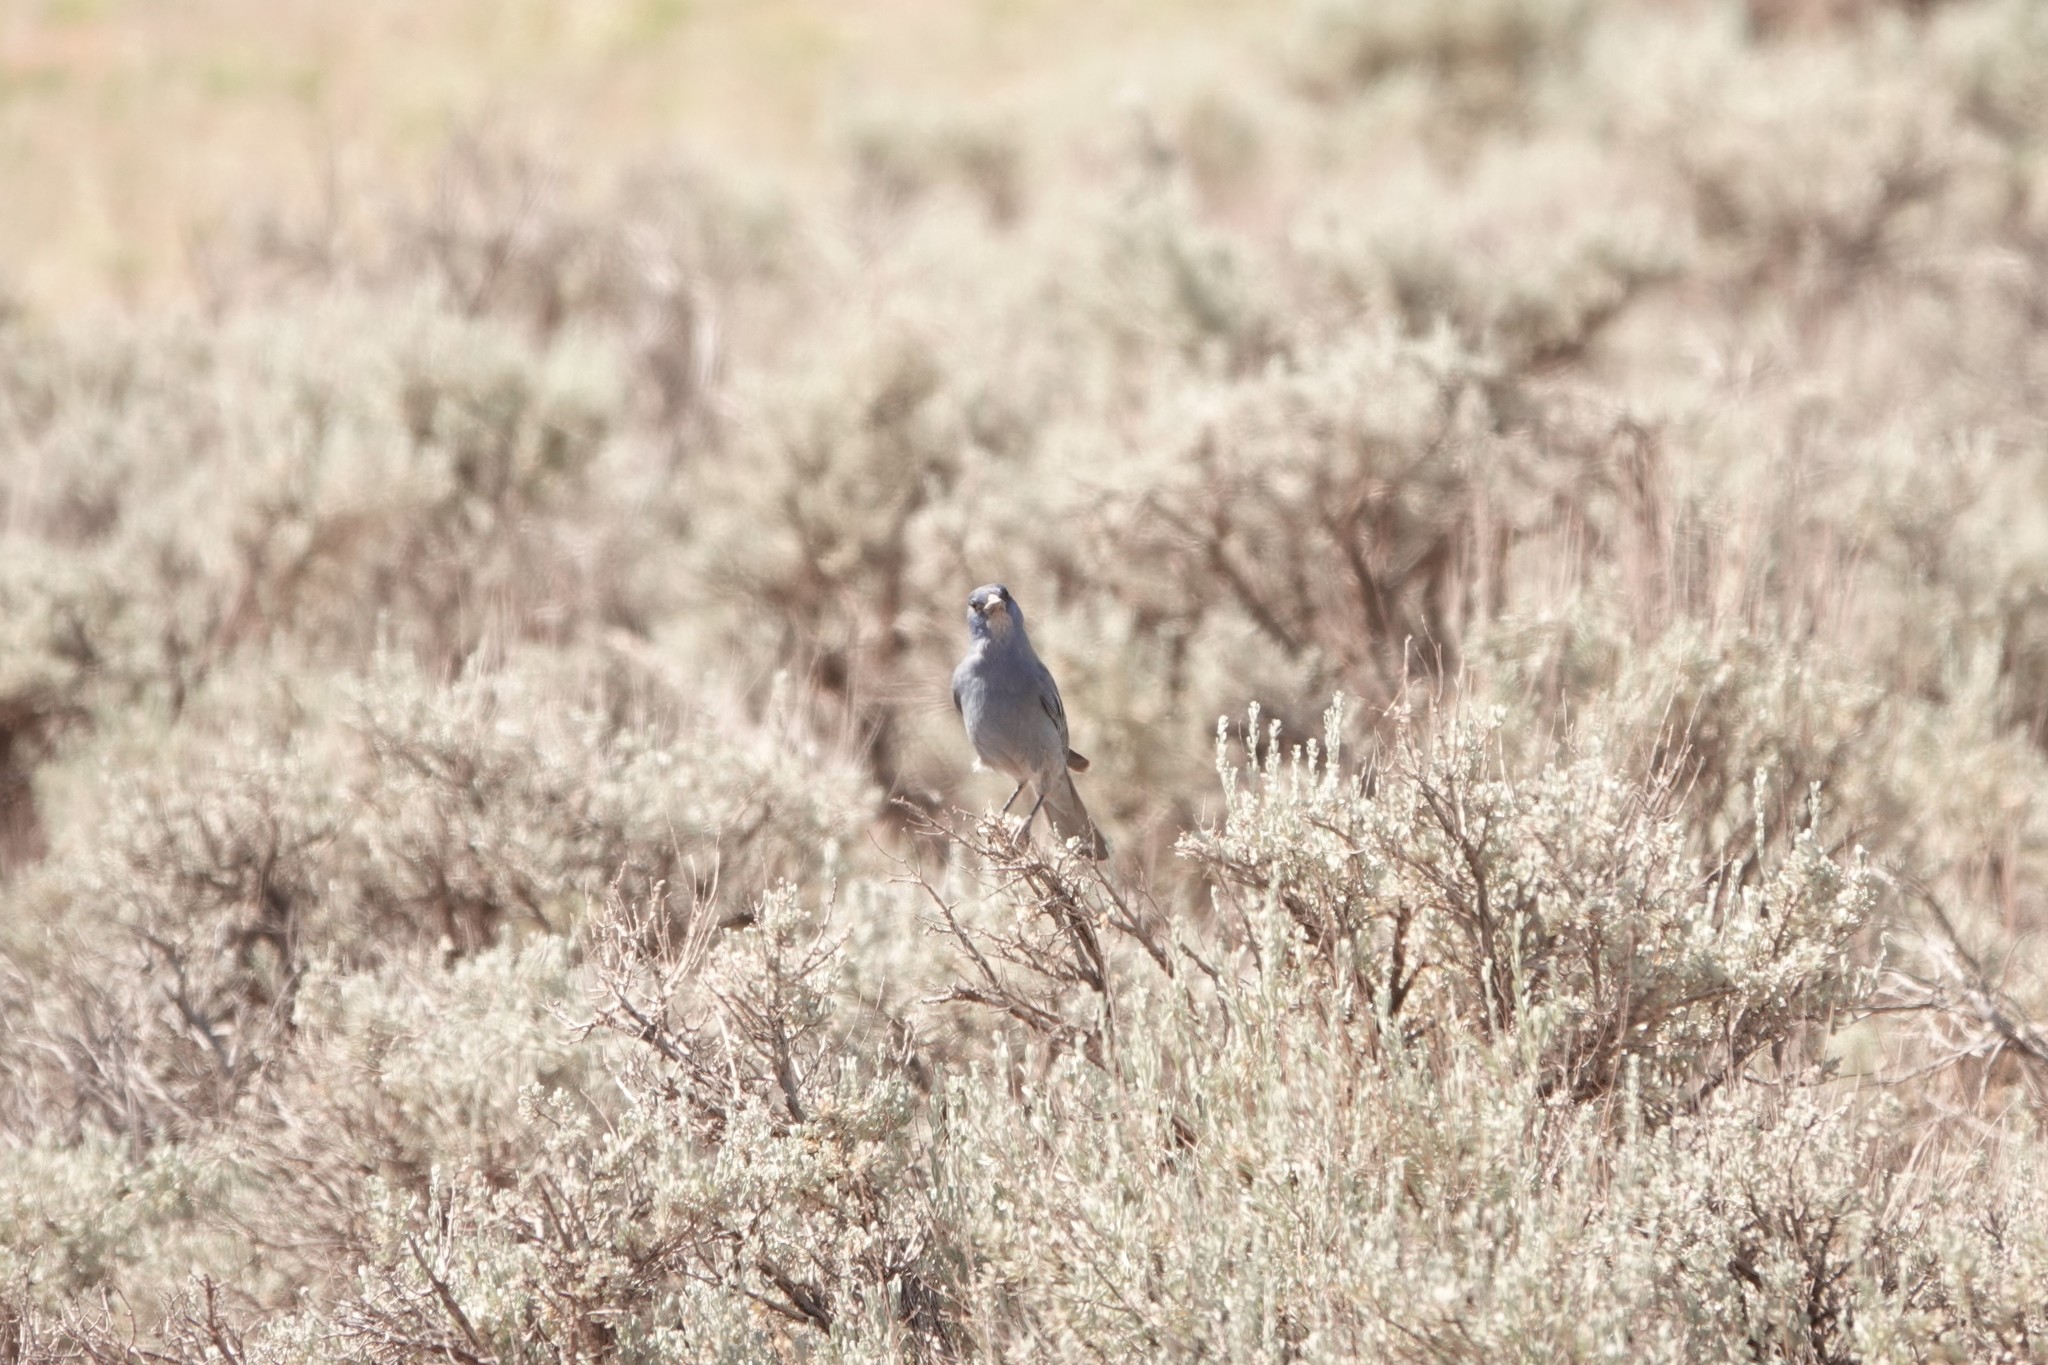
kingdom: Animalia
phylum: Chordata
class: Aves
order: Passeriformes
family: Corvidae
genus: Gymnorhinus
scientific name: Gymnorhinus cyanocephalus
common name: Pinyon jay
